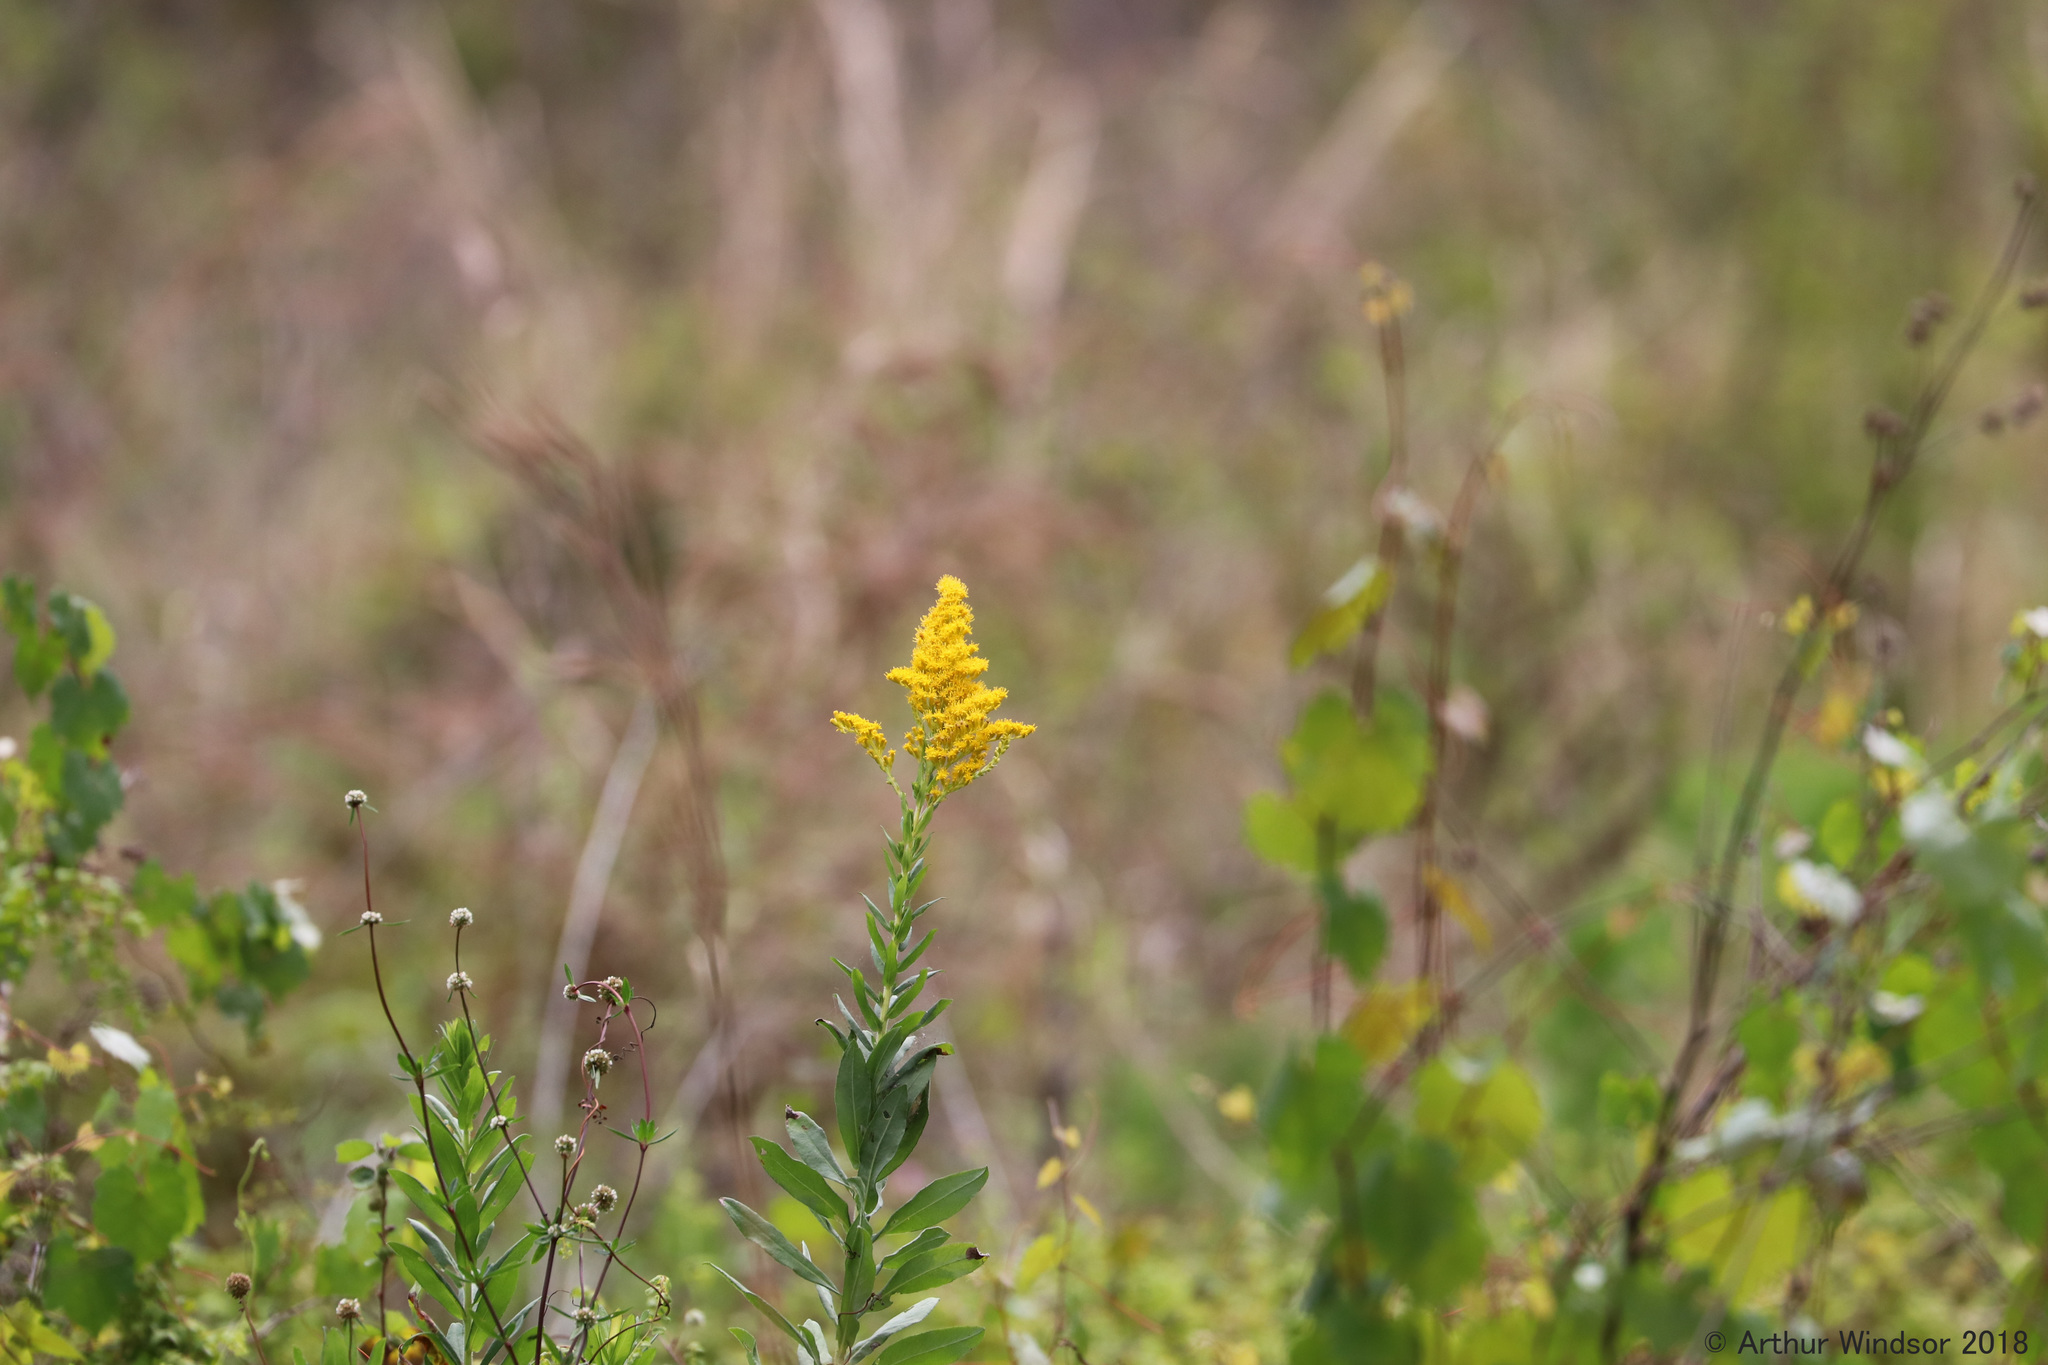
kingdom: Plantae
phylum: Tracheophyta
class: Magnoliopsida
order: Asterales
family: Asteraceae
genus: Solidago
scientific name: Solidago mexicana
